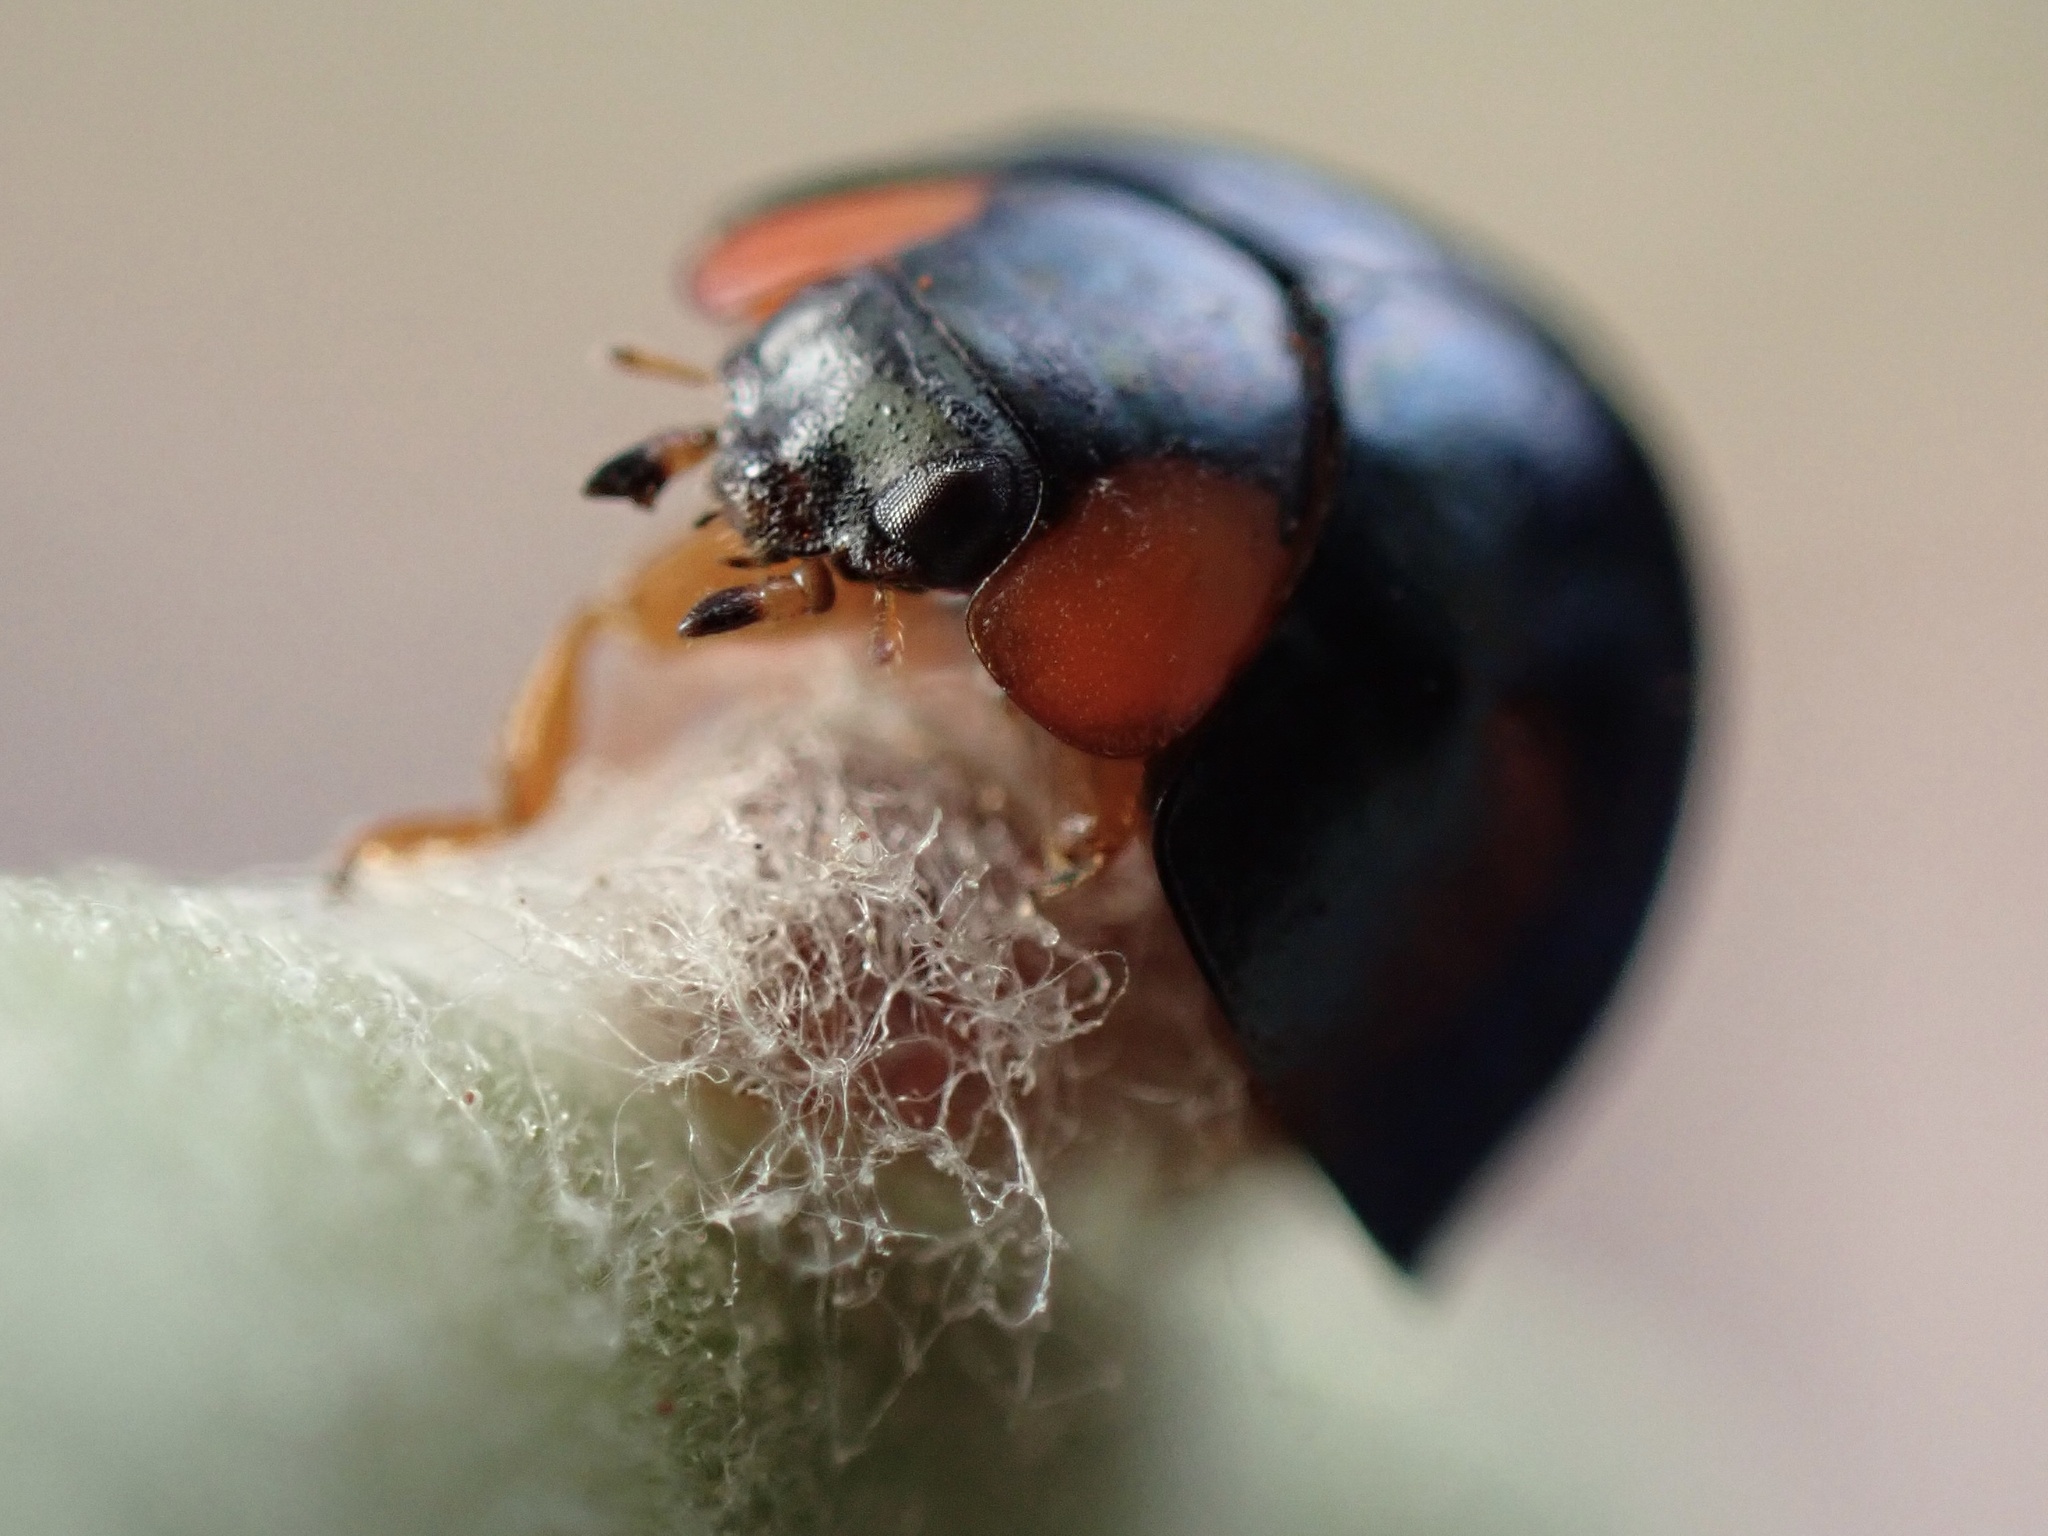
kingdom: Animalia
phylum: Arthropoda
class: Insecta
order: Coleoptera
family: Coccinellidae
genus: Curinus
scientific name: Curinus coeruleus
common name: Ladybird beetle
